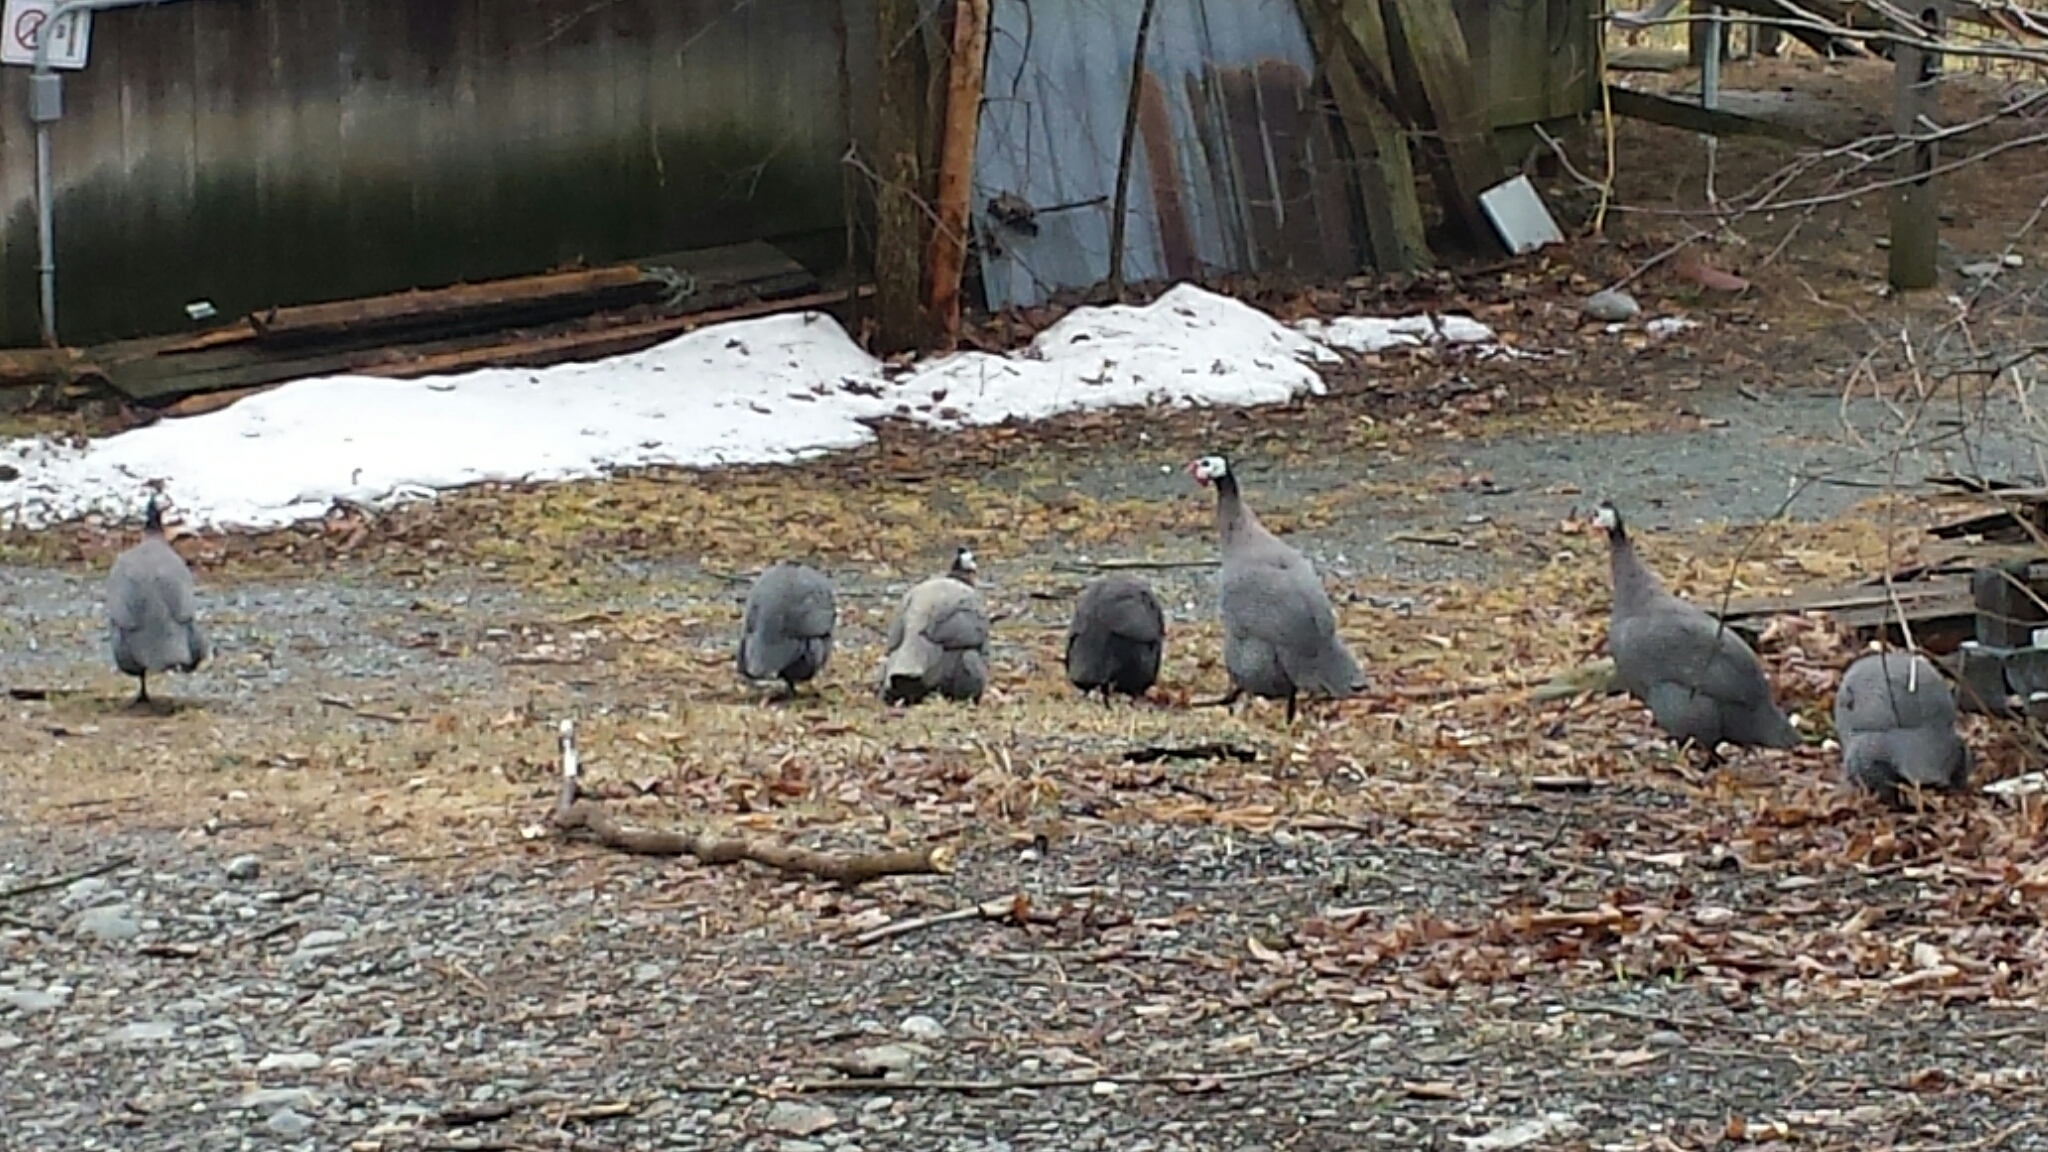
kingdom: Animalia
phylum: Chordata
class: Aves
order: Galliformes
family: Numididae
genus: Numida
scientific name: Numida meleagris
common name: Helmeted guineafowl
